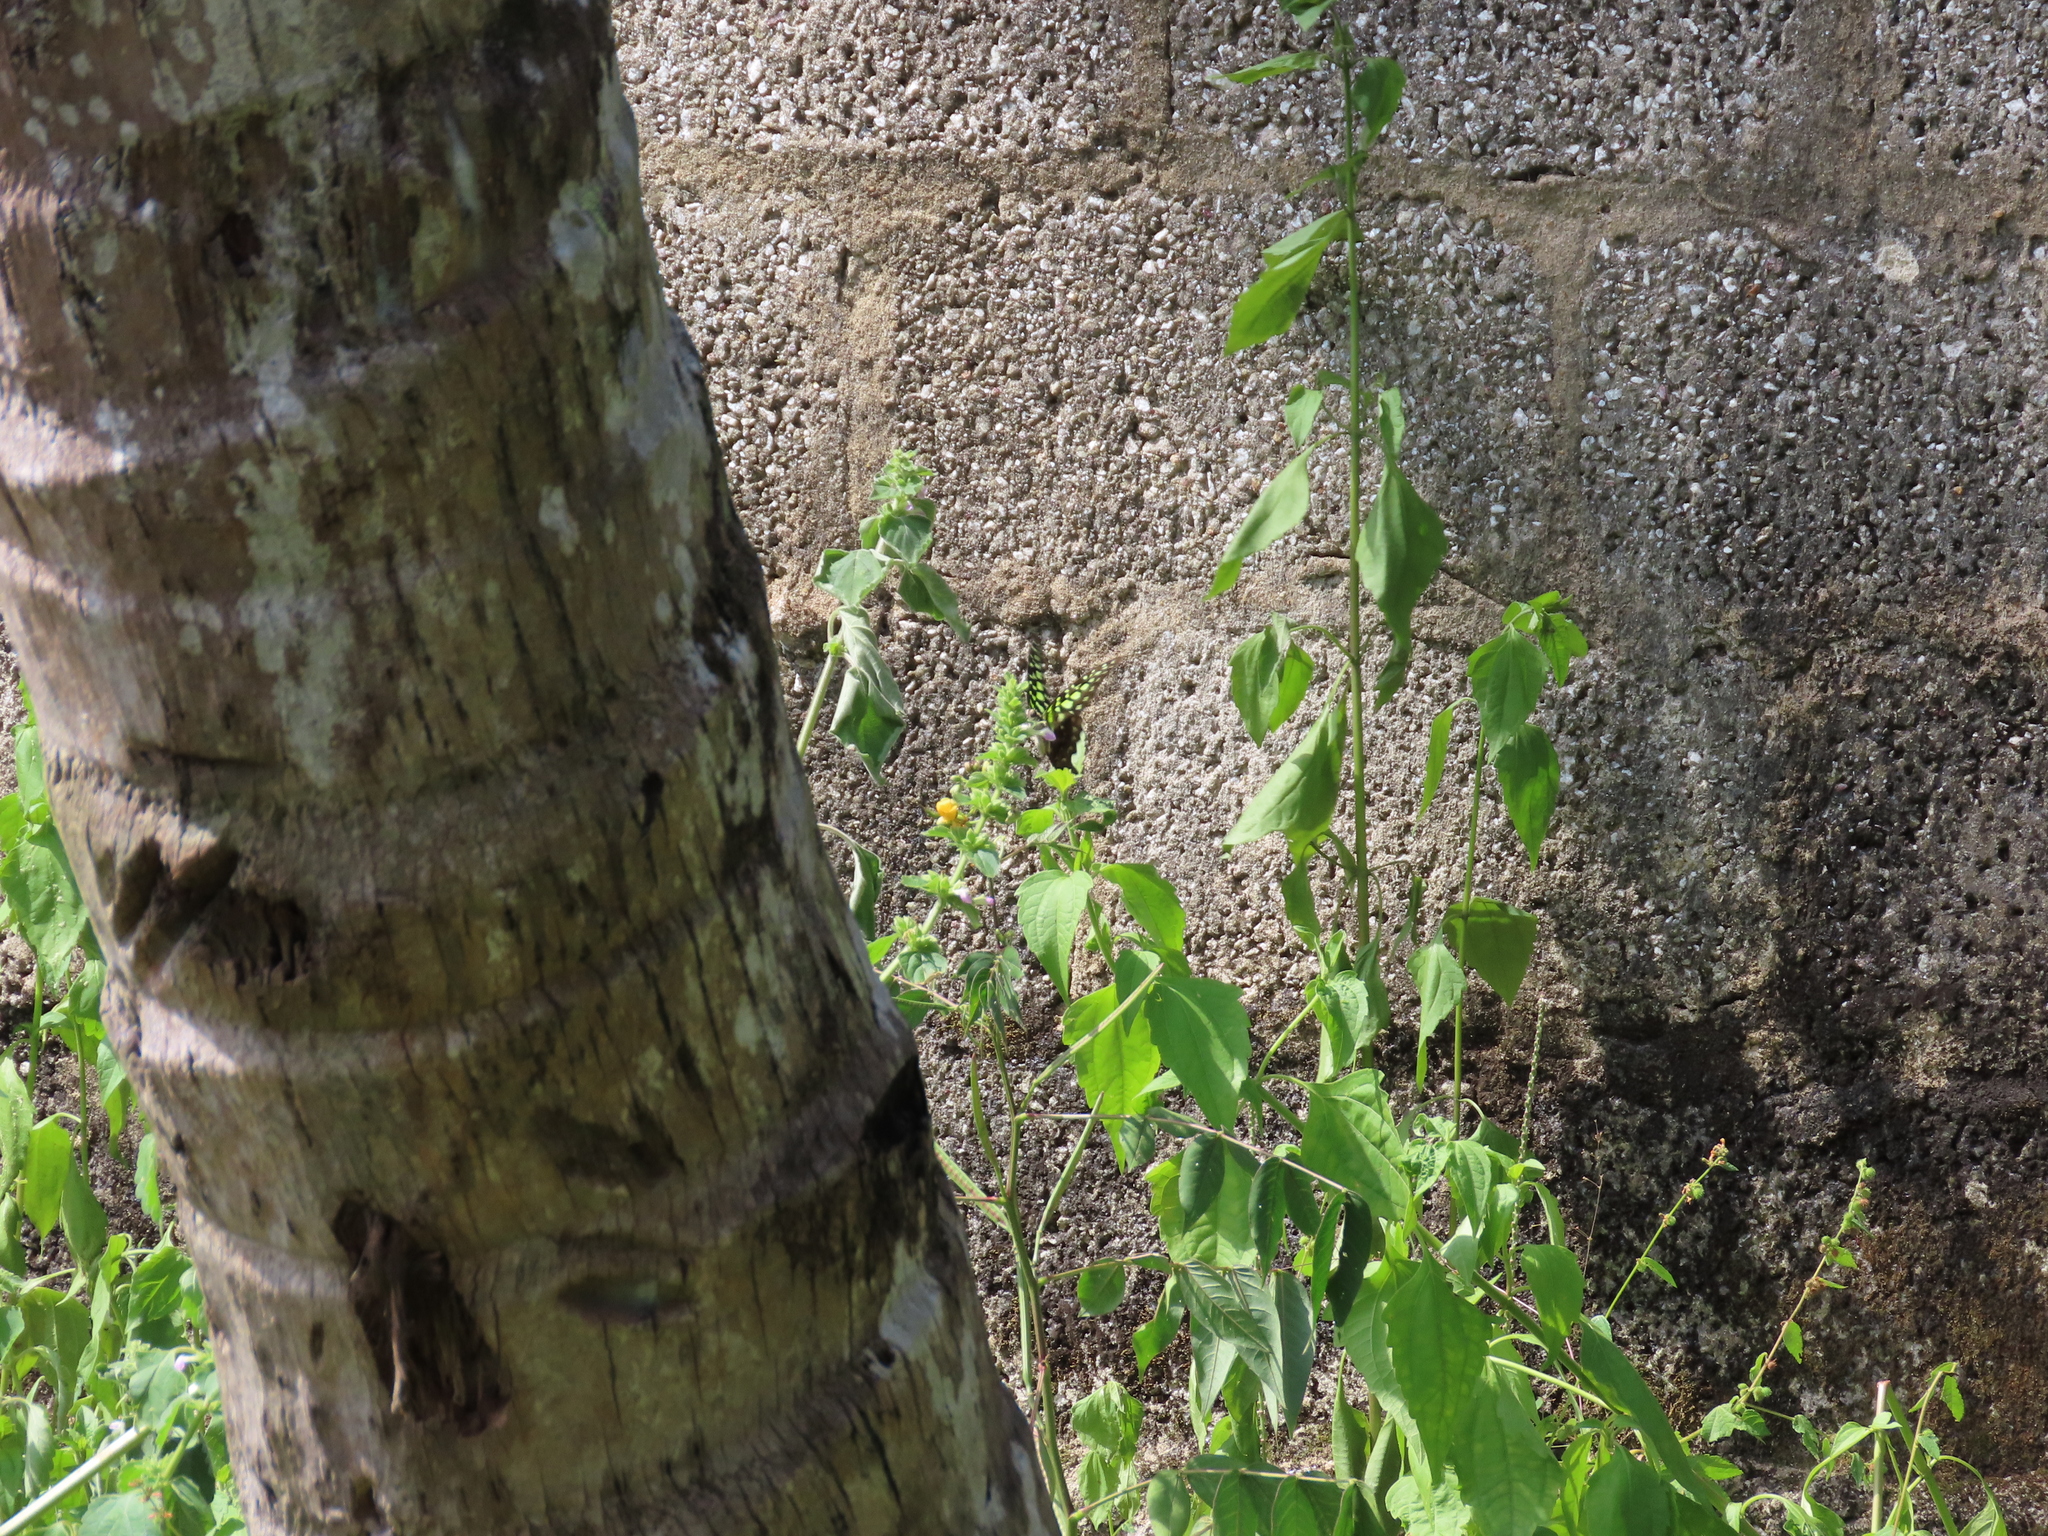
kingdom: Animalia
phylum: Arthropoda
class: Insecta
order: Lepidoptera
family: Papilionidae
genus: Graphium
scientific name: Graphium agamemnon
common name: Tailed jay
